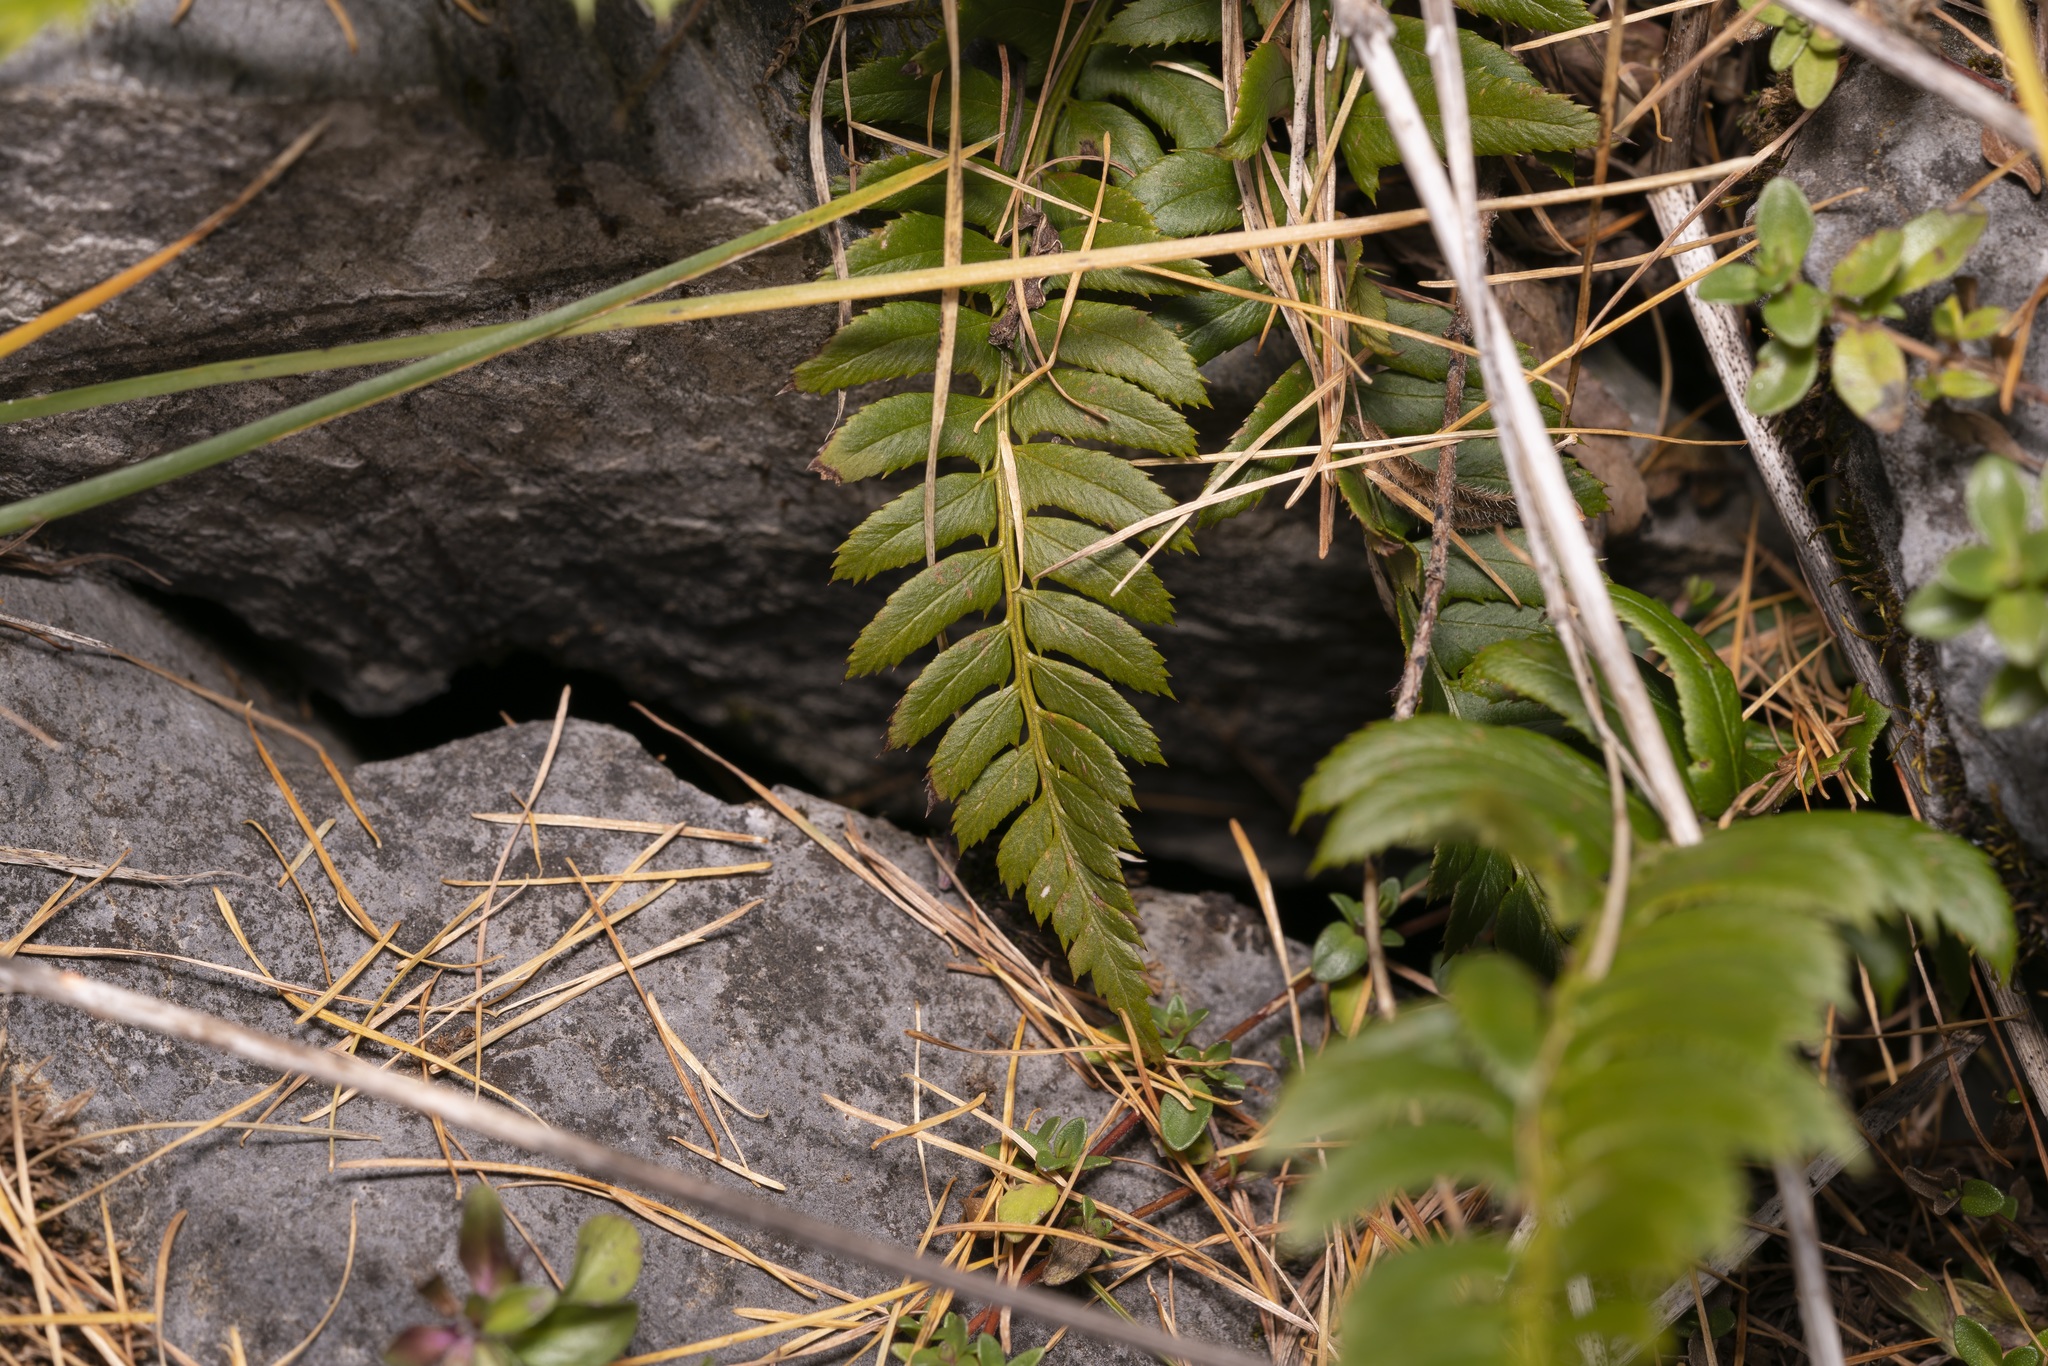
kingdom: Plantae
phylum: Tracheophyta
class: Polypodiopsida
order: Polypodiales
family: Dryopteridaceae
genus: Polystichum
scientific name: Polystichum lonchitis
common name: Holly fern
